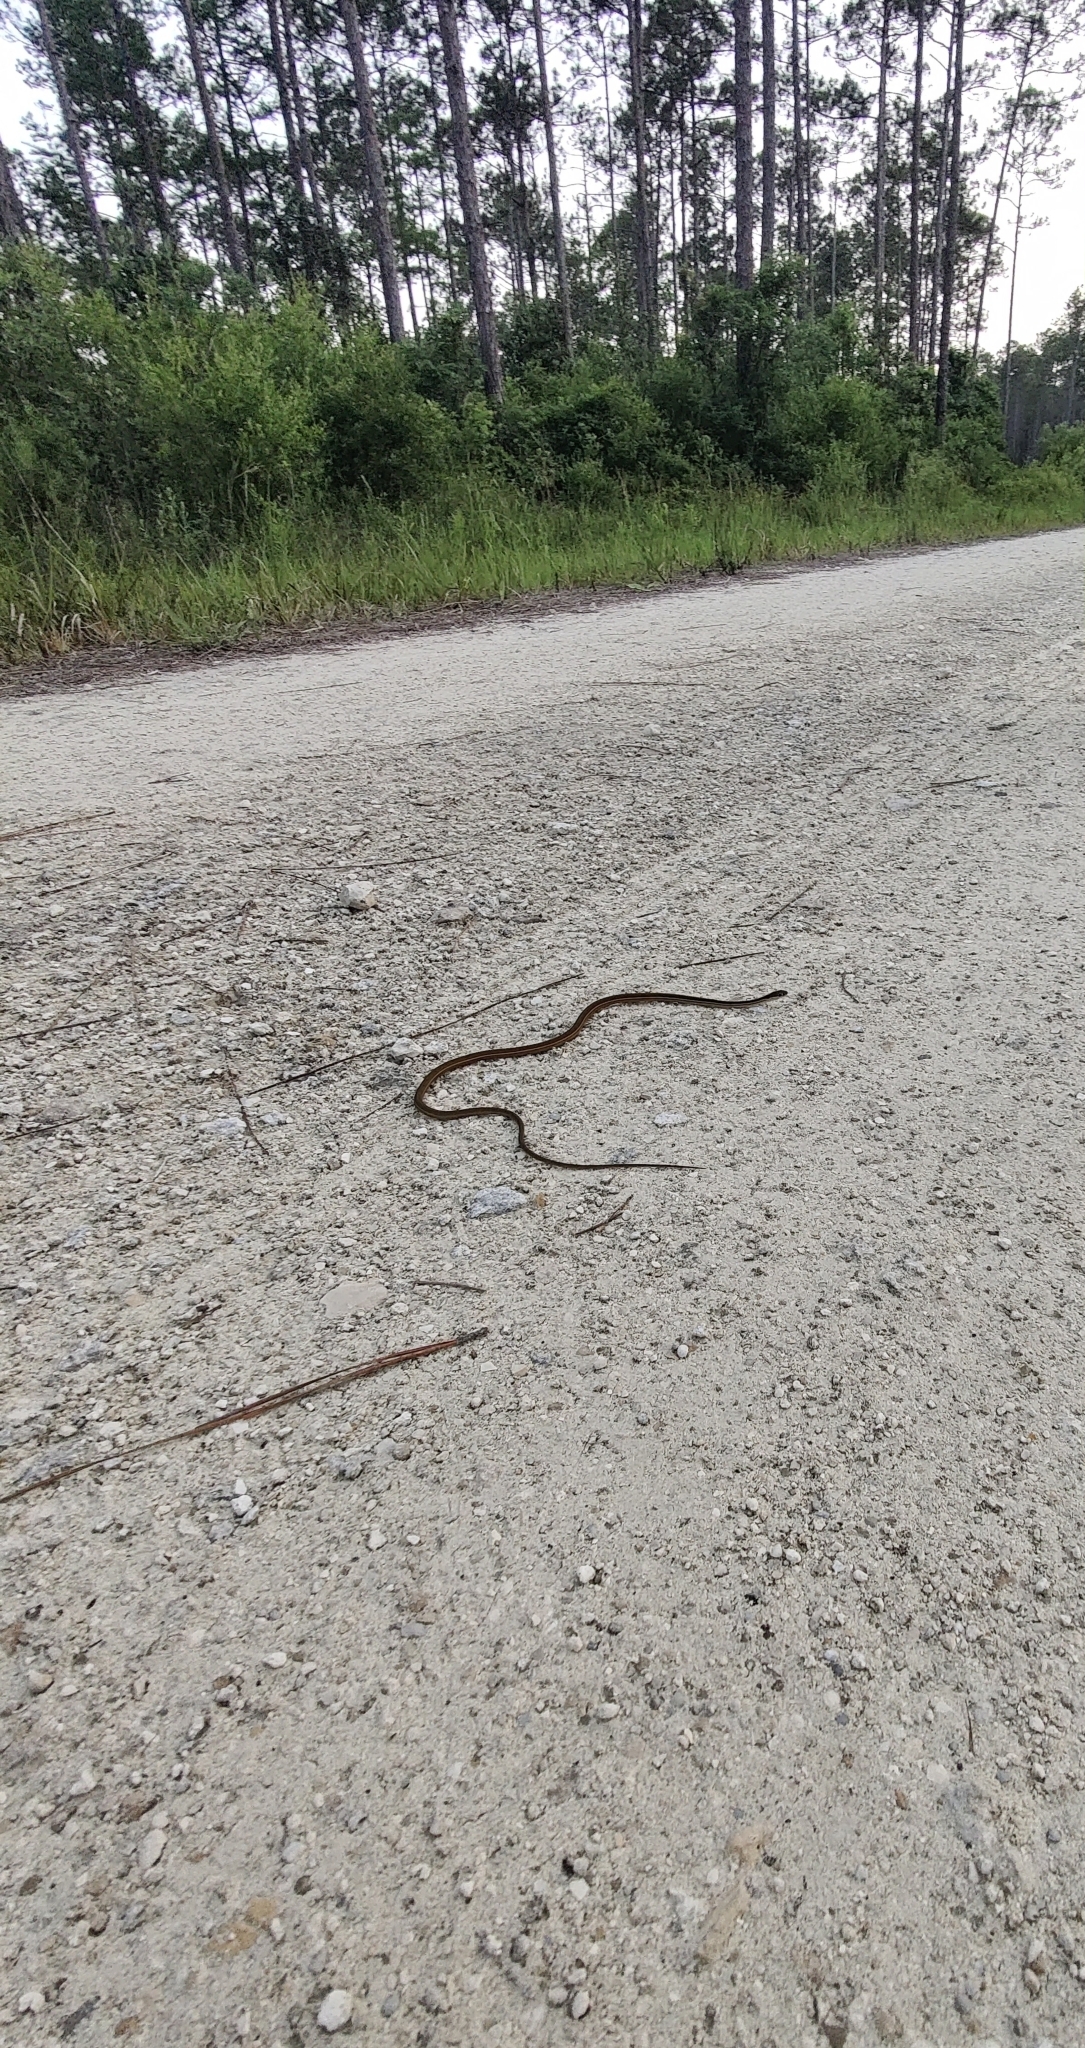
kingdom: Animalia
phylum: Chordata
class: Squamata
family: Colubridae
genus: Thamnophis
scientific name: Thamnophis saurita
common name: Eastern ribbonsnake
